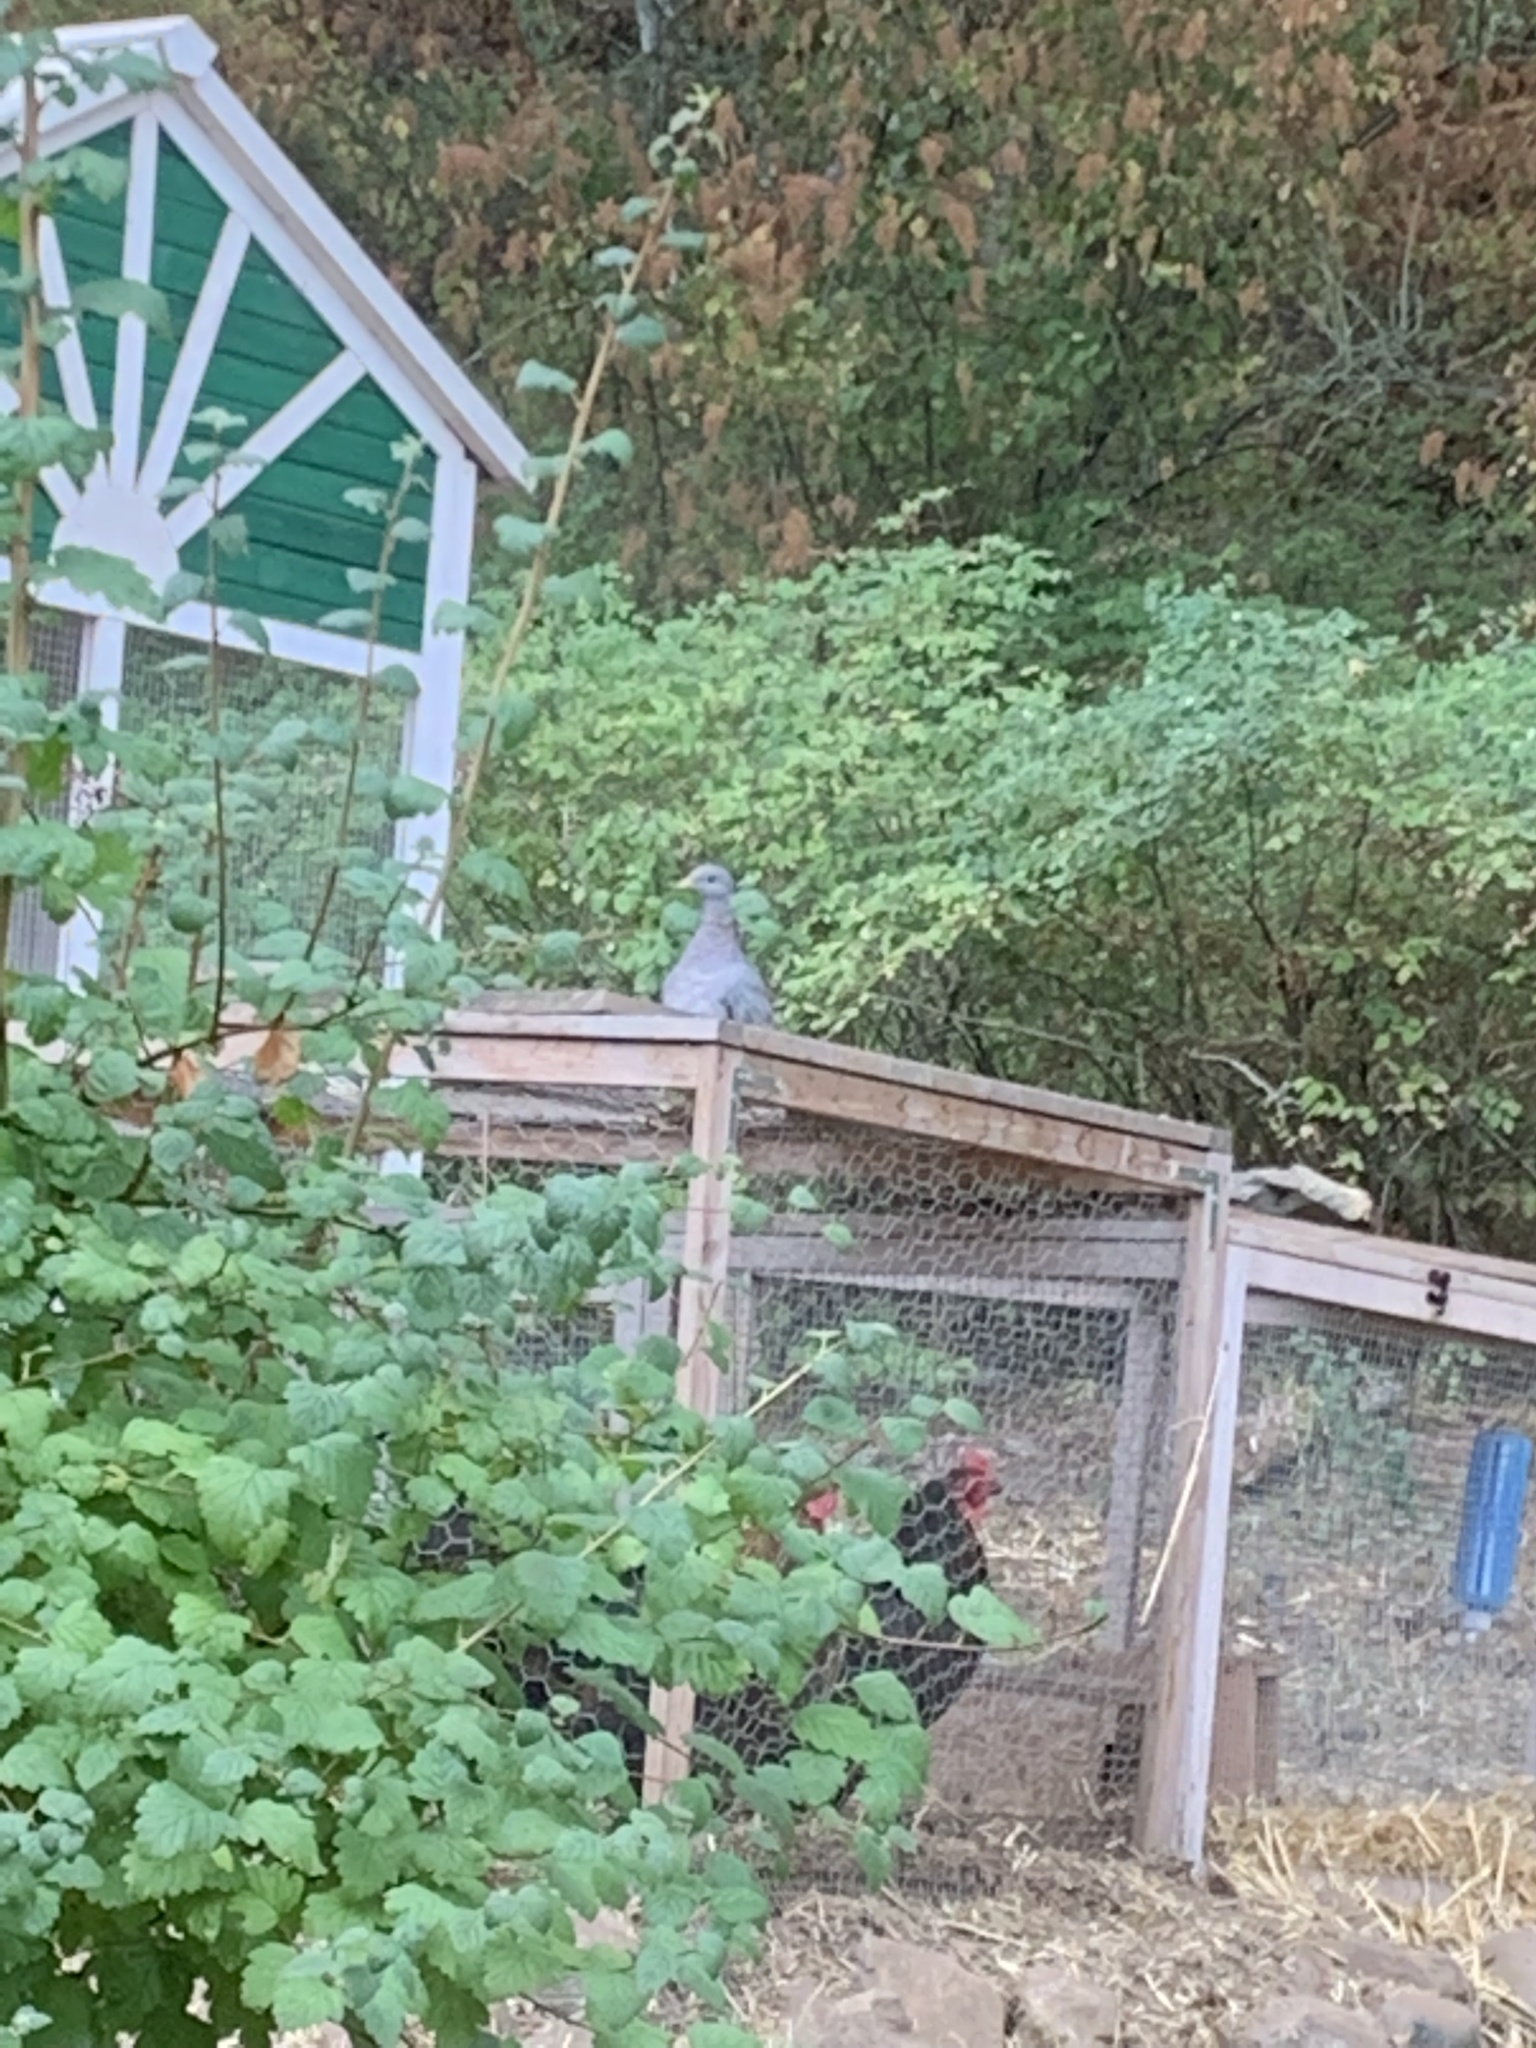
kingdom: Animalia
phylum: Chordata
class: Aves
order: Columbiformes
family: Columbidae
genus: Patagioenas
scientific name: Patagioenas fasciata
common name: Band-tailed pigeon
